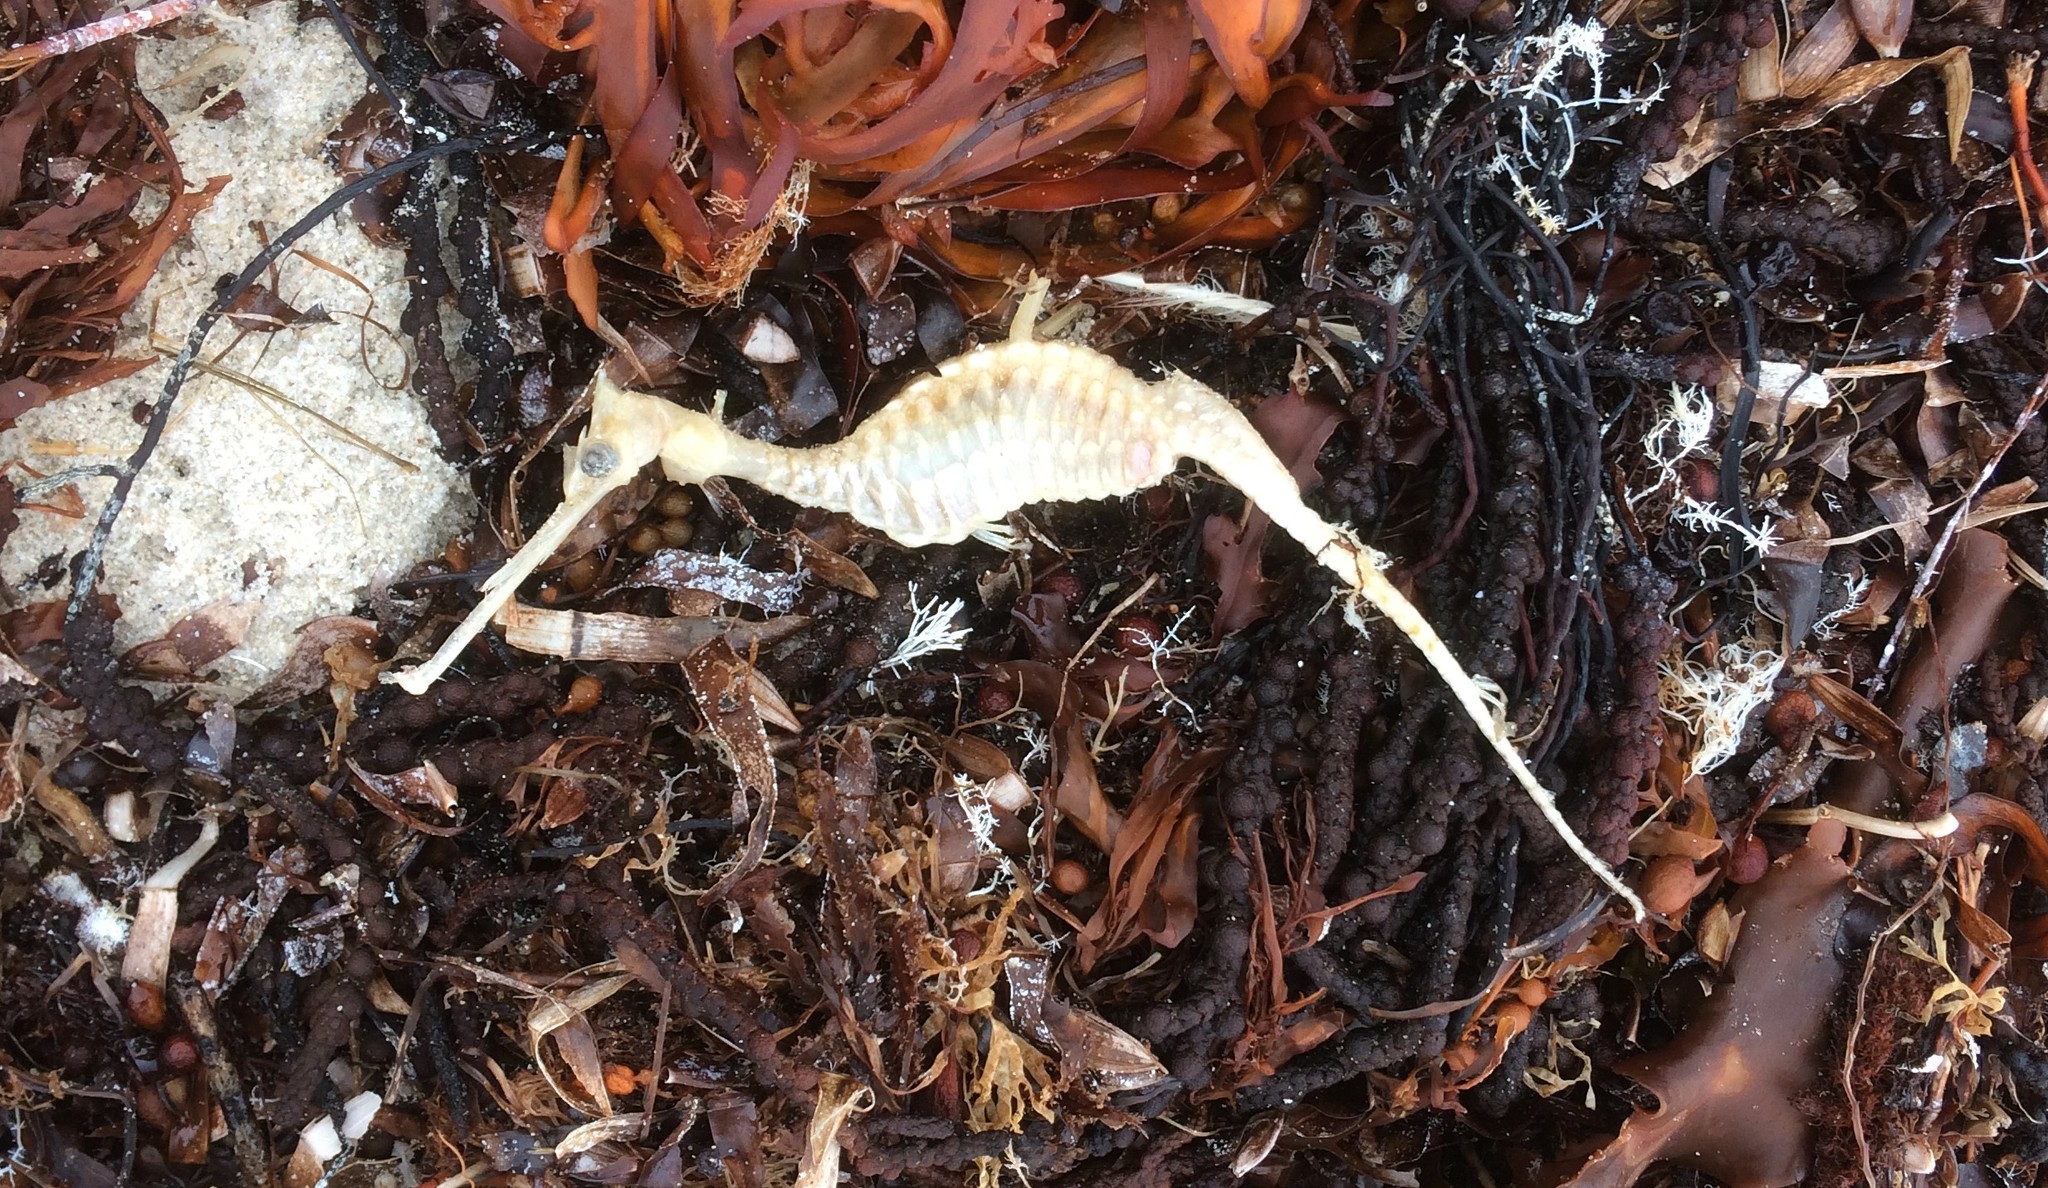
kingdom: Animalia
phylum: Chordata
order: Syngnathiformes
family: Syngnathidae
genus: Phyllopteryx
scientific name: Phyllopteryx taeniolatus
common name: Common seadragon
